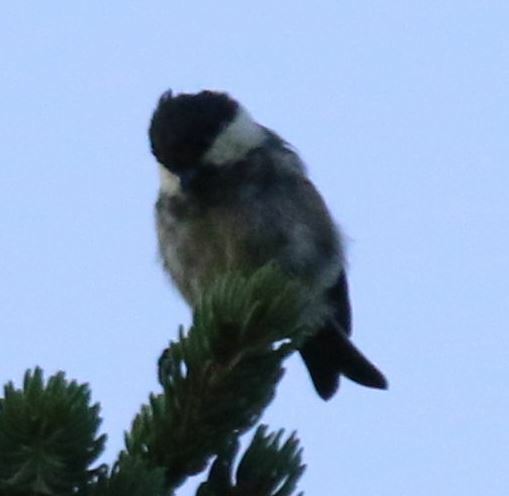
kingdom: Animalia
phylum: Chordata
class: Aves
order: Passeriformes
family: Paridae
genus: Periparus
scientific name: Periparus ater
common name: Coal tit
